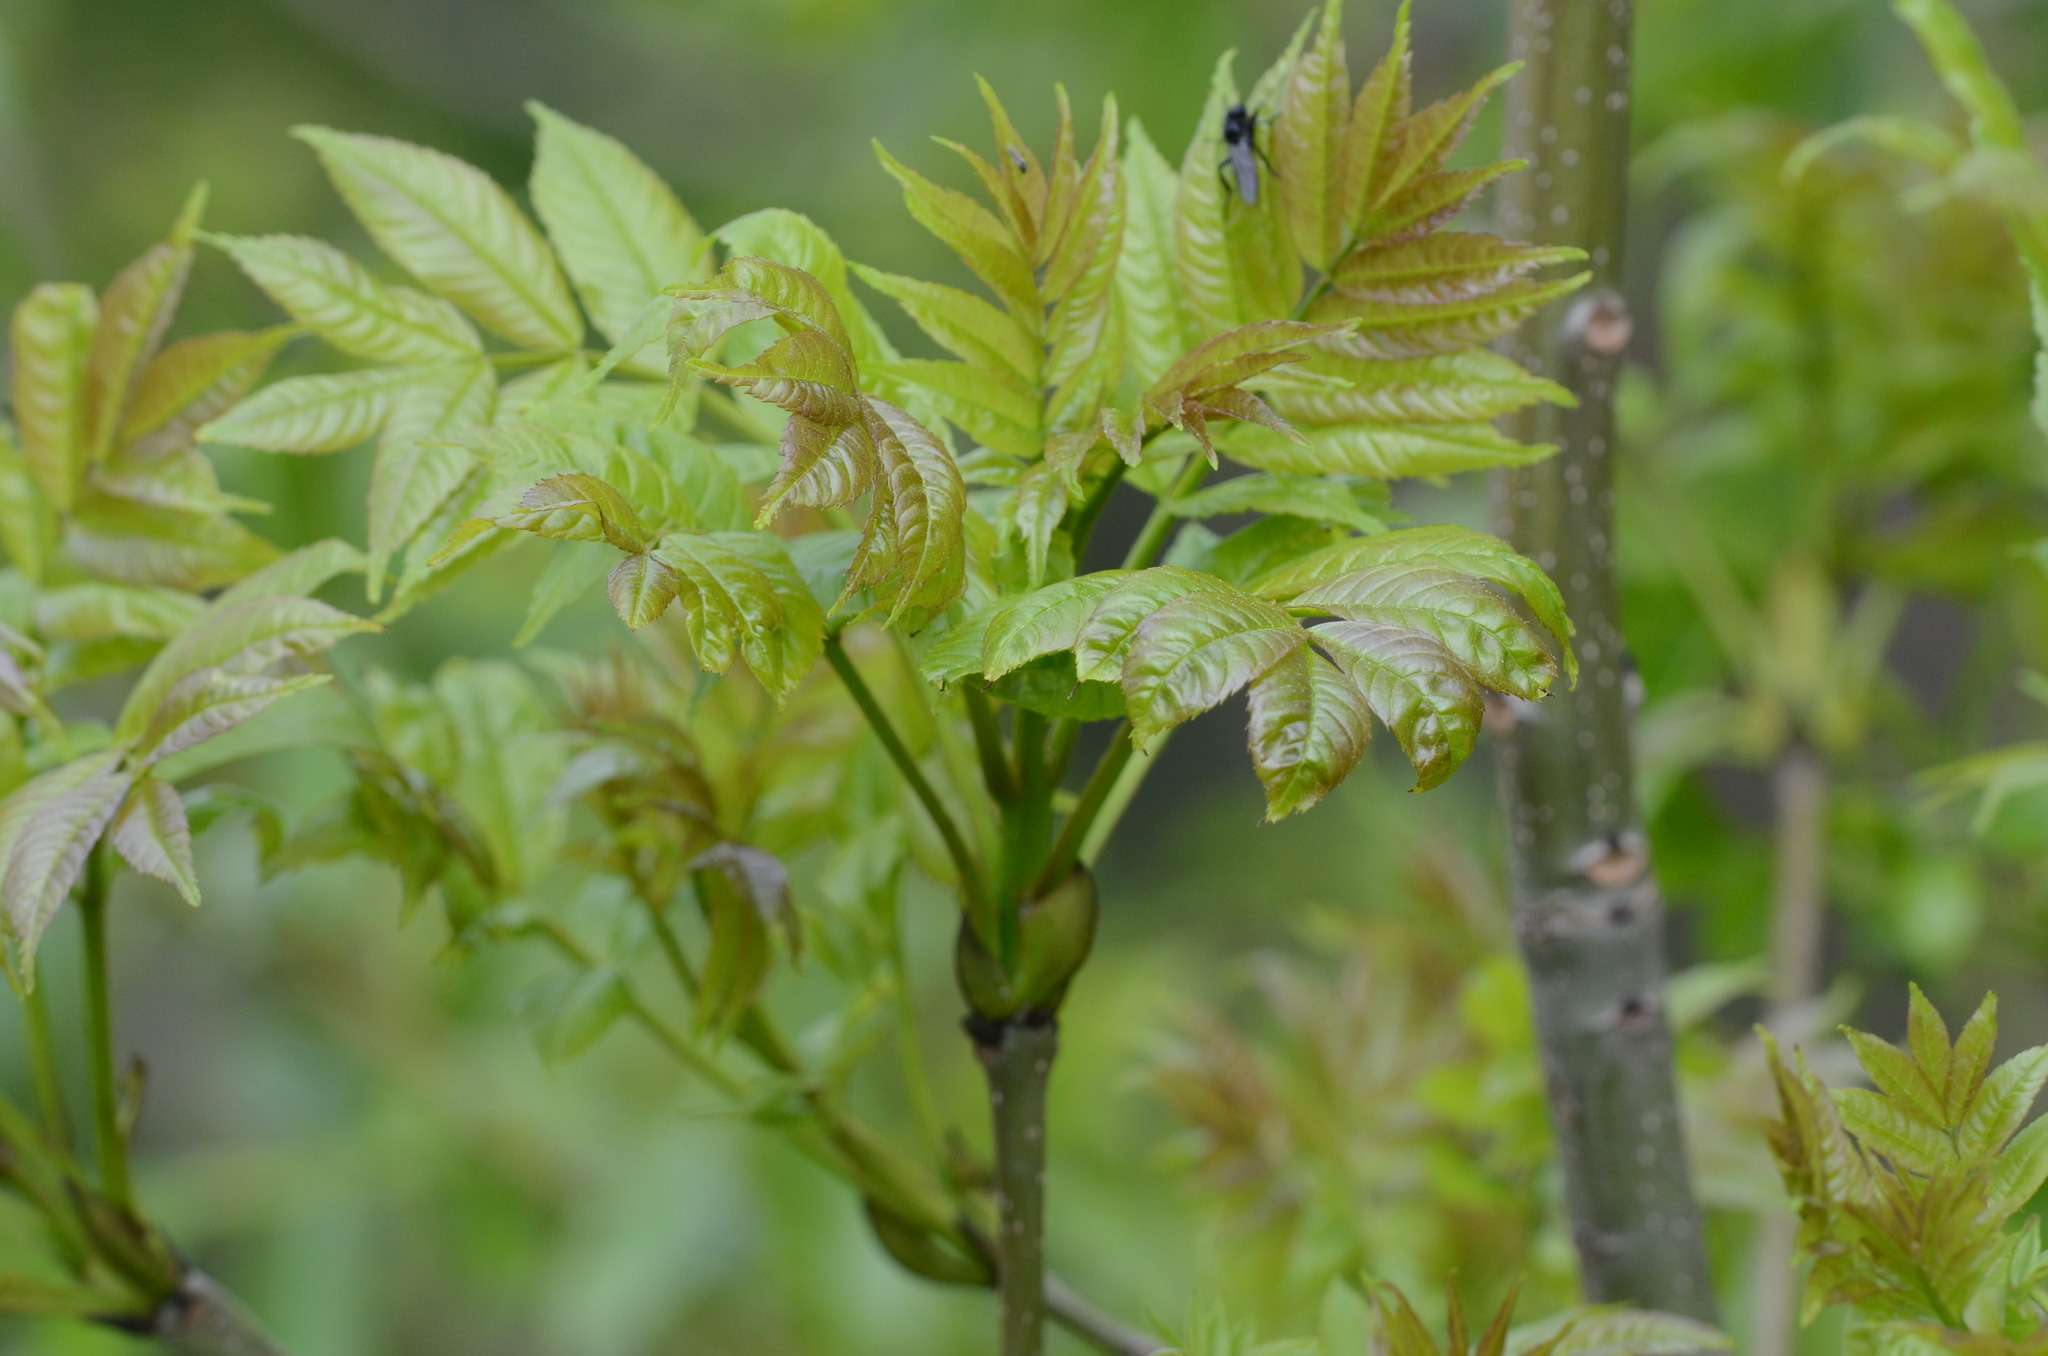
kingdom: Plantae
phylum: Tracheophyta
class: Magnoliopsida
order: Lamiales
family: Oleaceae
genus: Fraxinus
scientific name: Fraxinus excelsior
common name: European ash
